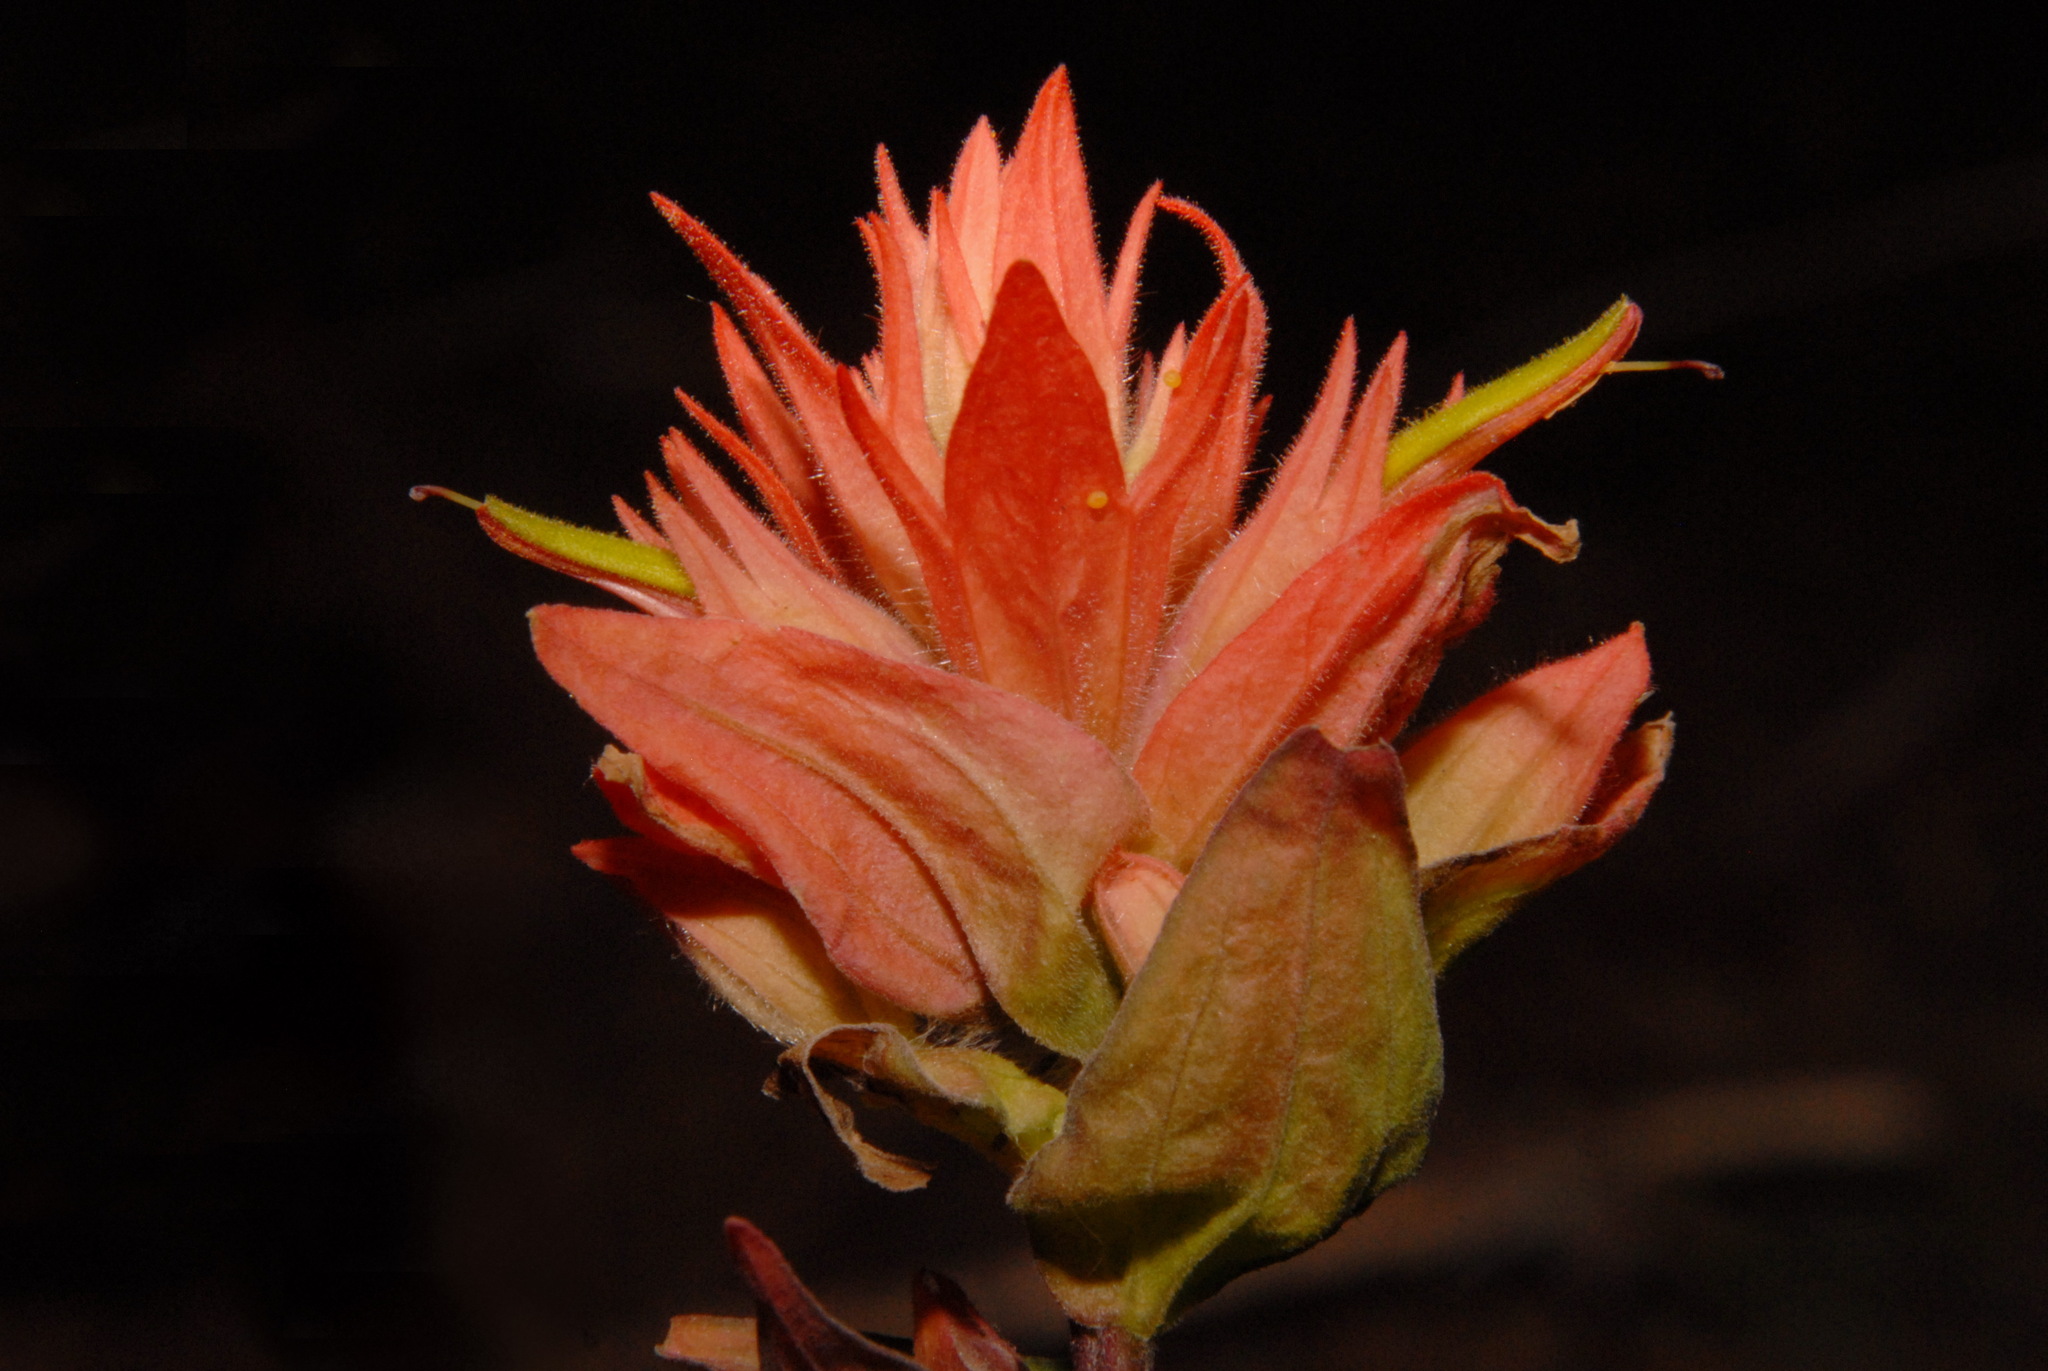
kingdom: Plantae
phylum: Tracheophyta
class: Magnoliopsida
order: Lamiales
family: Orobanchaceae
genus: Castilleja
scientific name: Castilleja miniata
